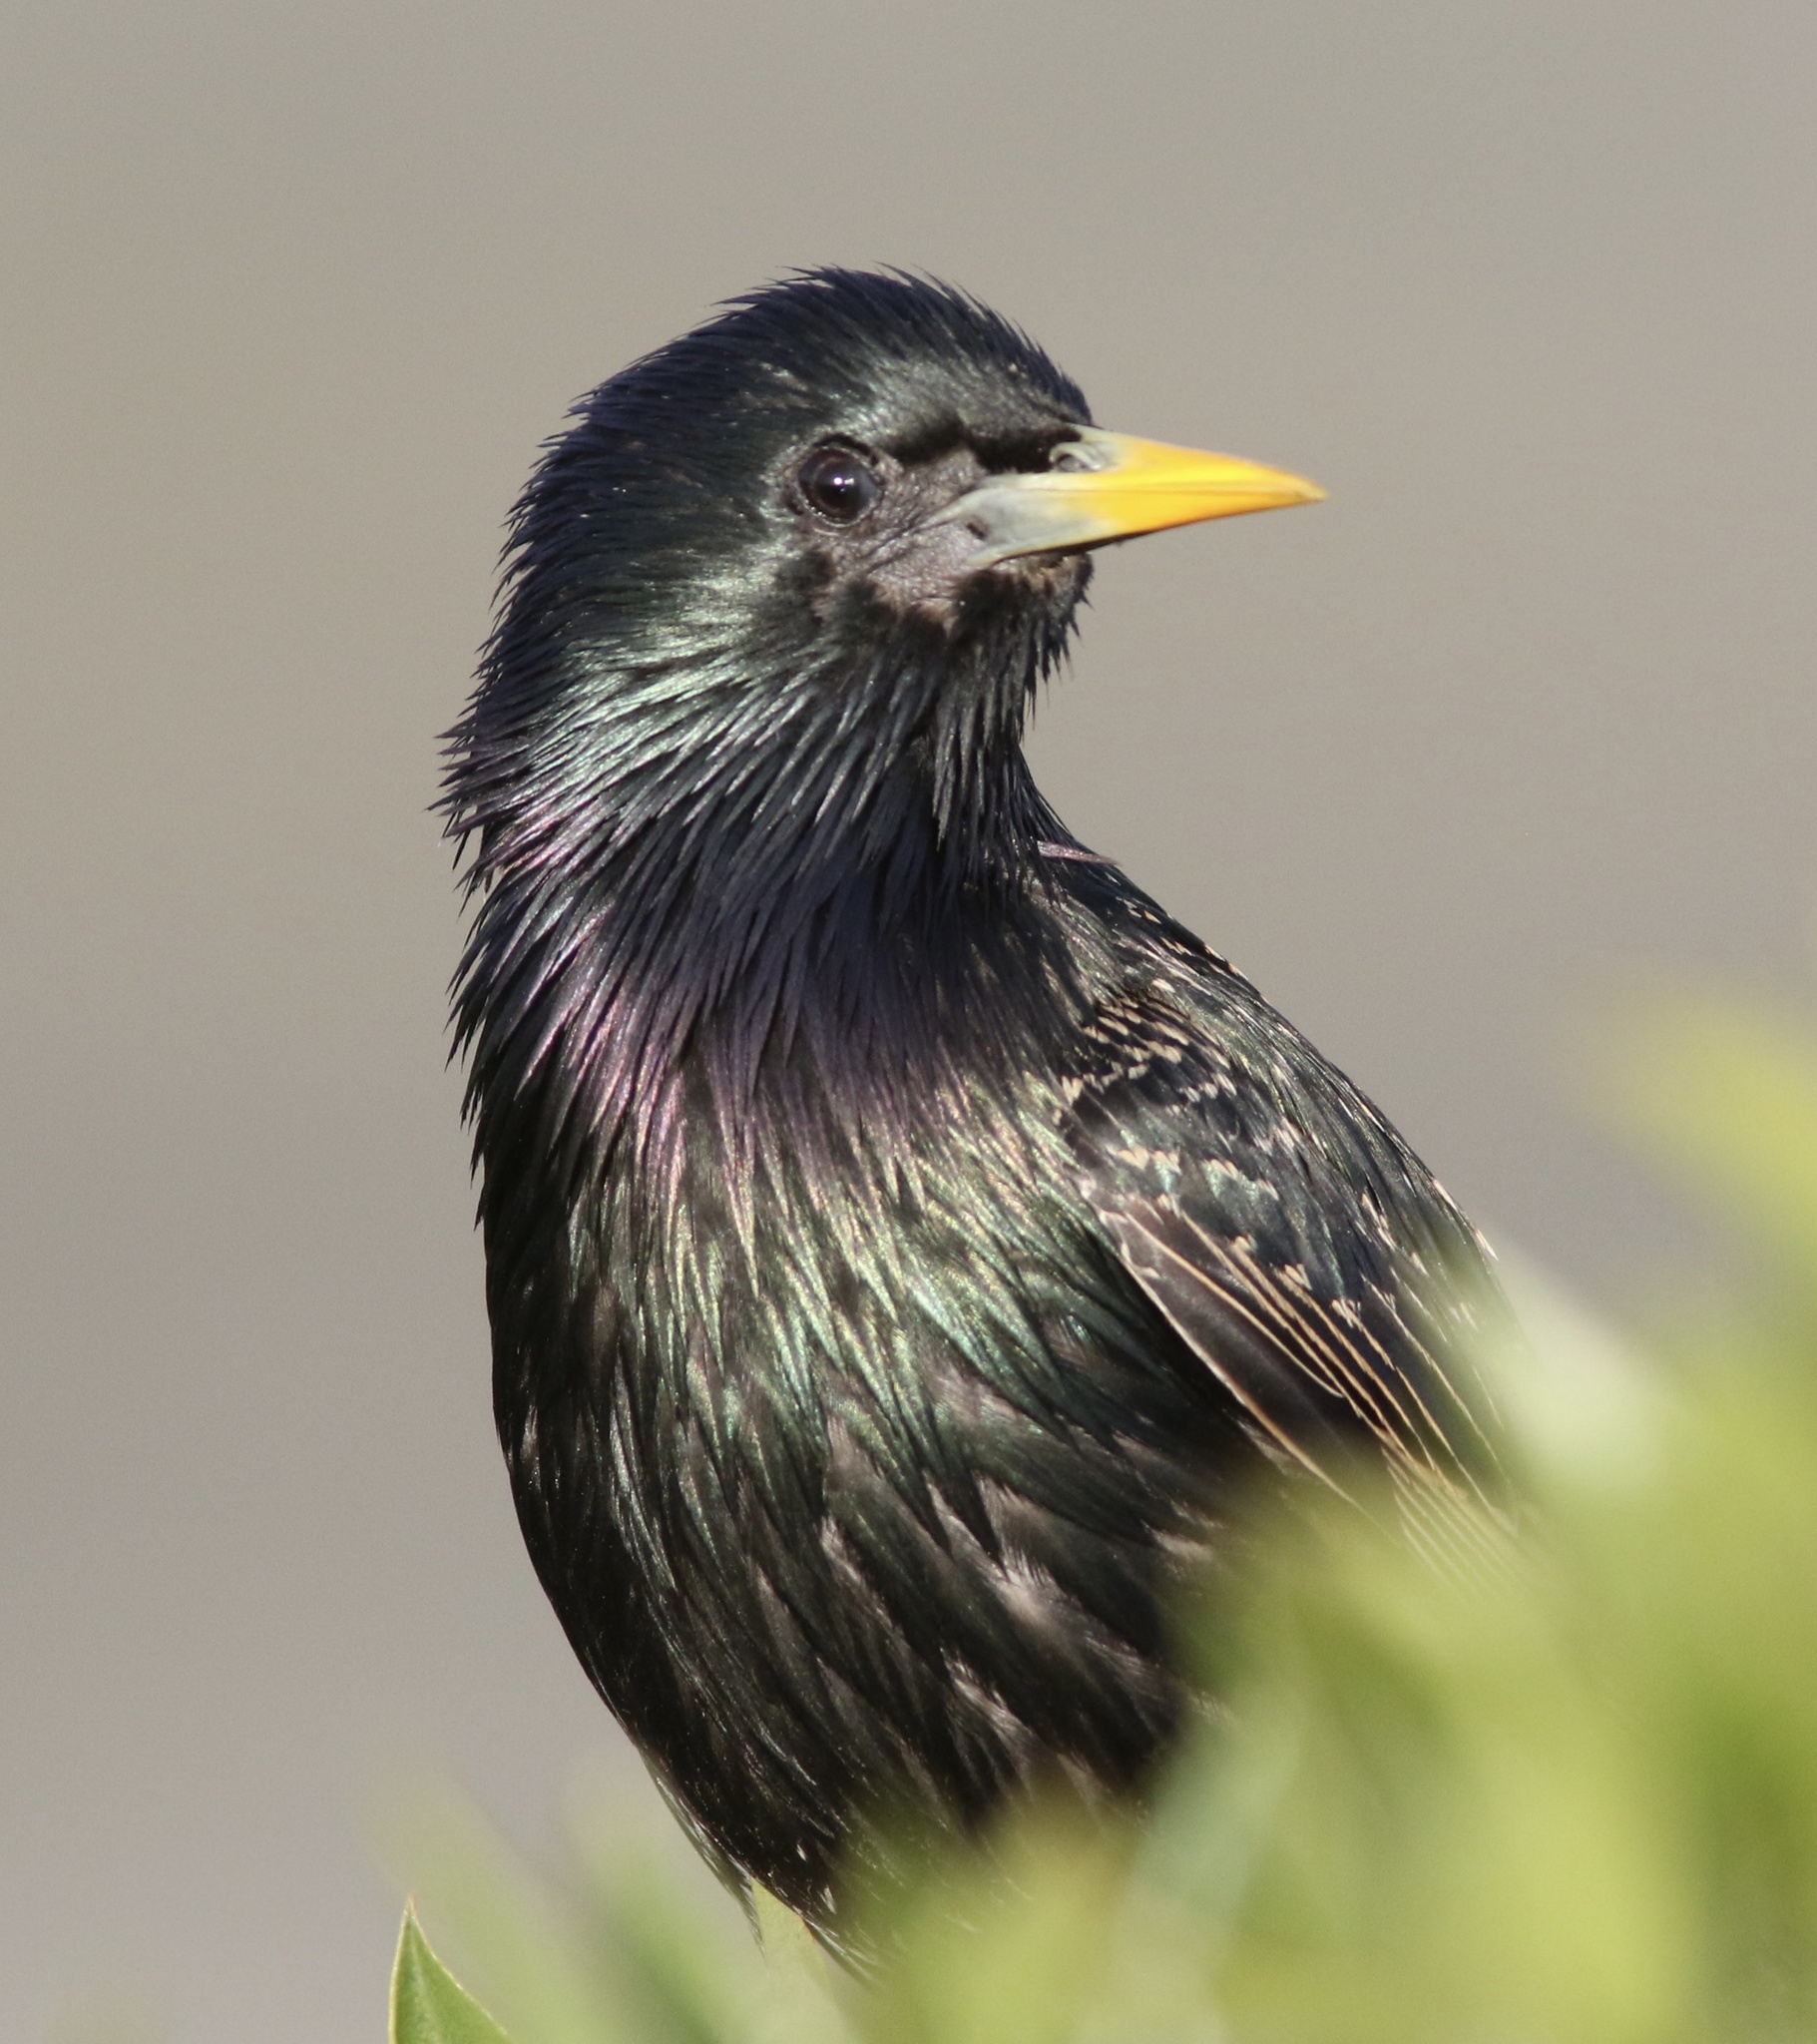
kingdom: Animalia
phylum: Chordata
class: Aves
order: Passeriformes
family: Sturnidae
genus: Sturnus
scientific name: Sturnus vulgaris
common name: Common starling
